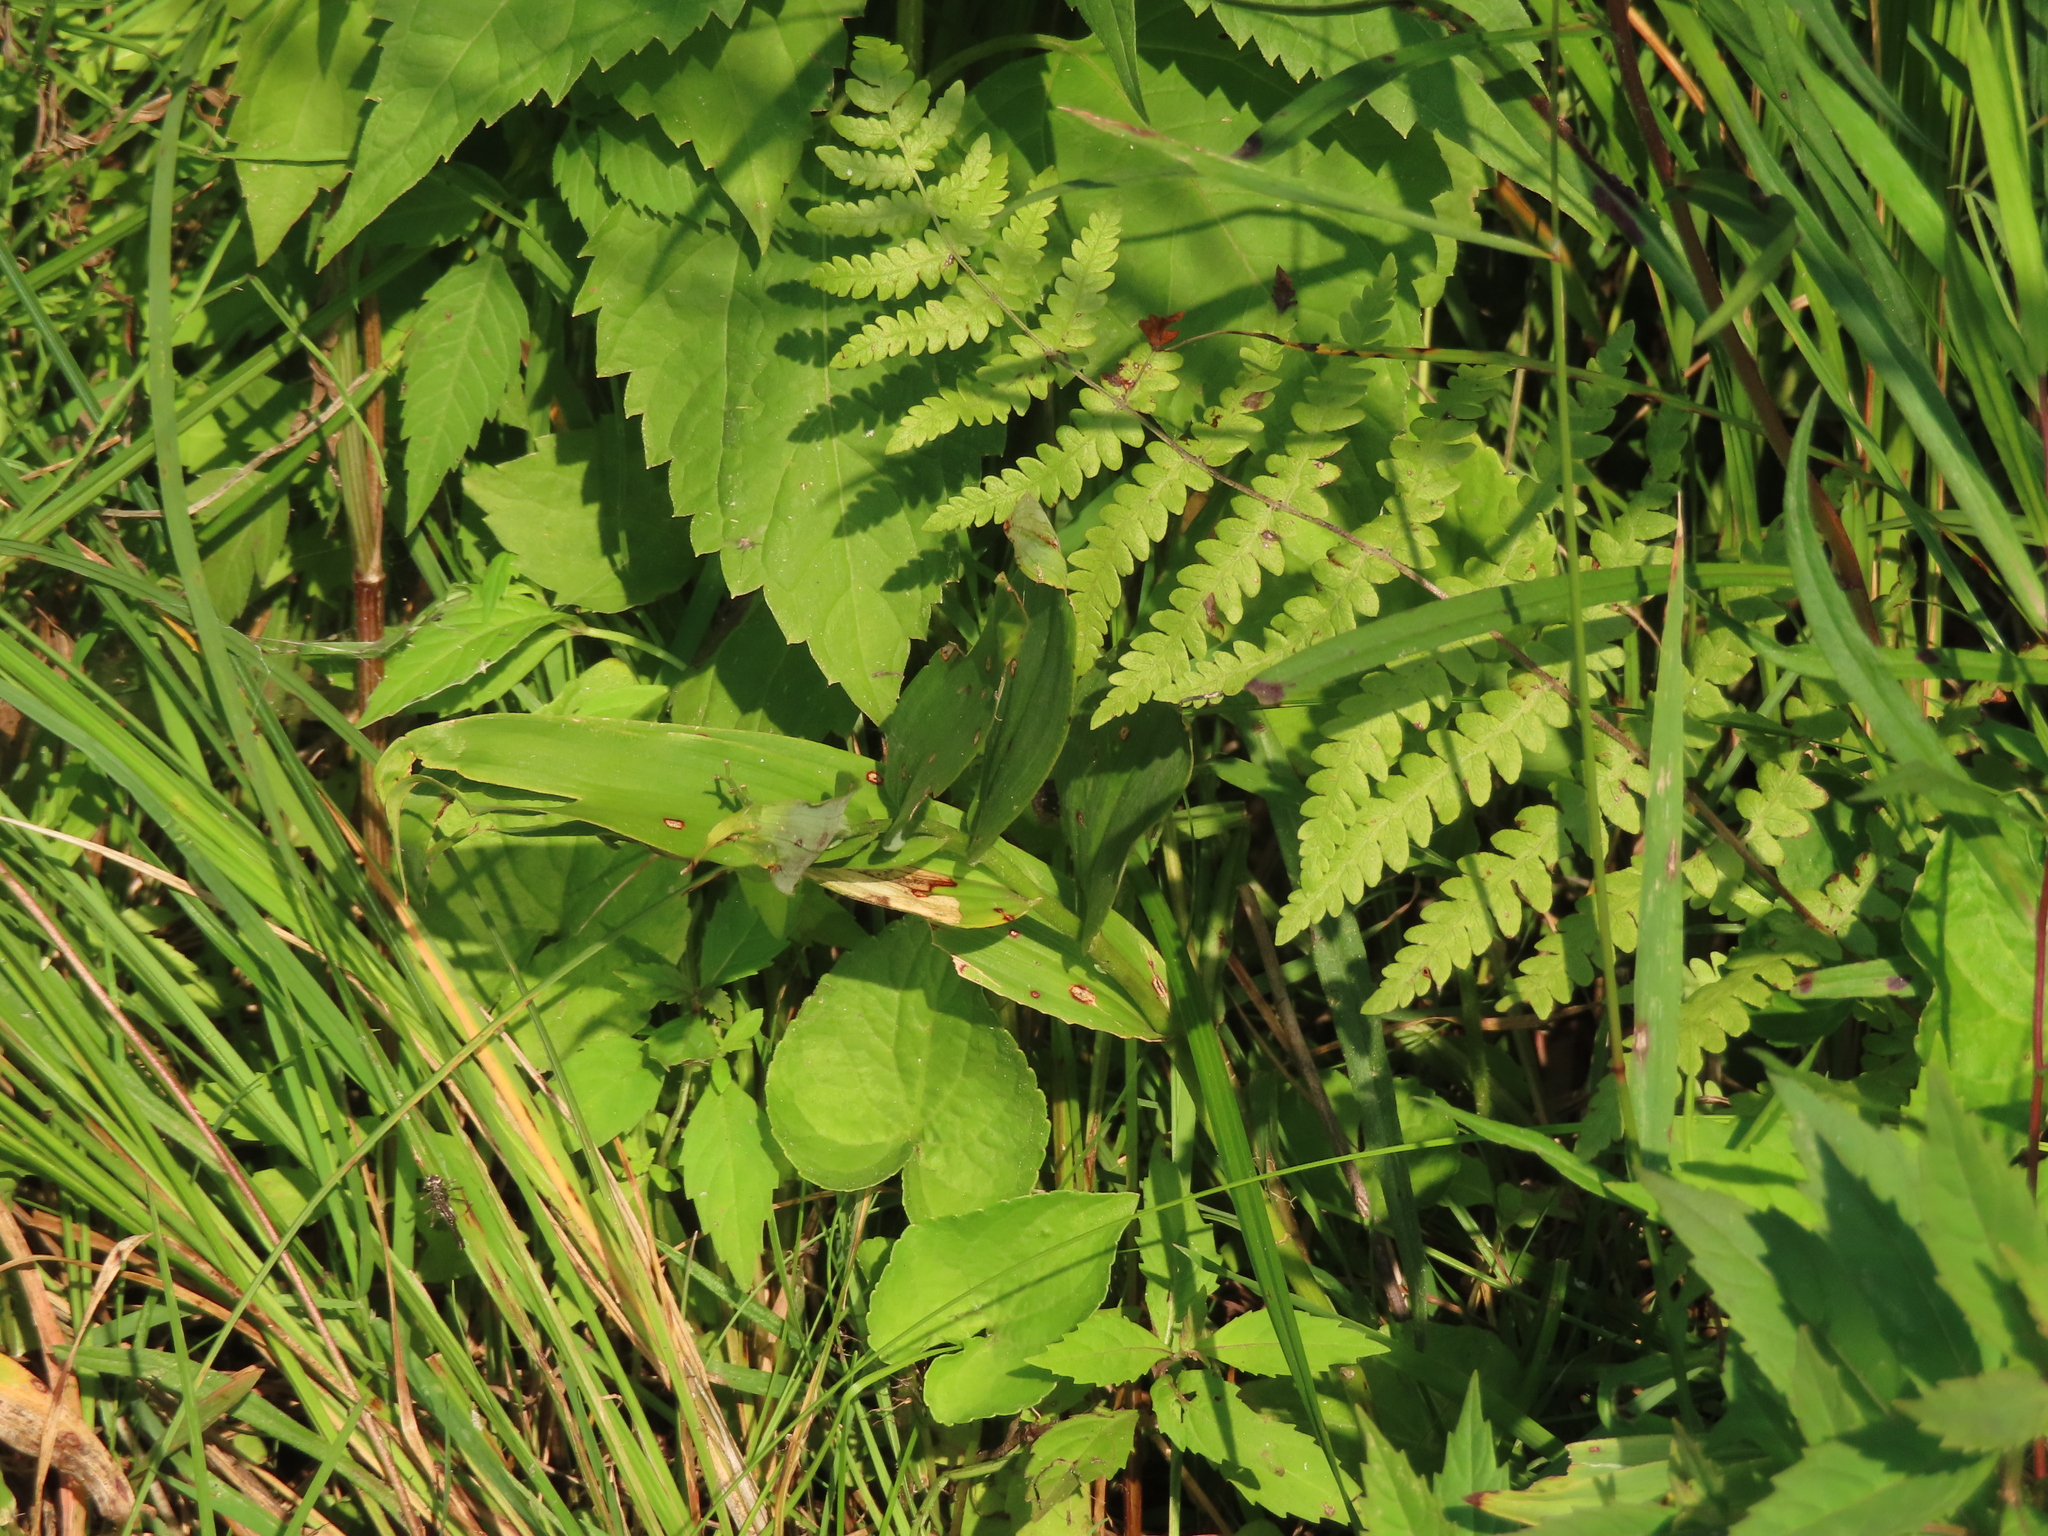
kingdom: Plantae
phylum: Tracheophyta
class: Polypodiopsida
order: Polypodiales
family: Thelypteridaceae
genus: Thelypteris
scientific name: Thelypteris palustris
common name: Marsh fern
